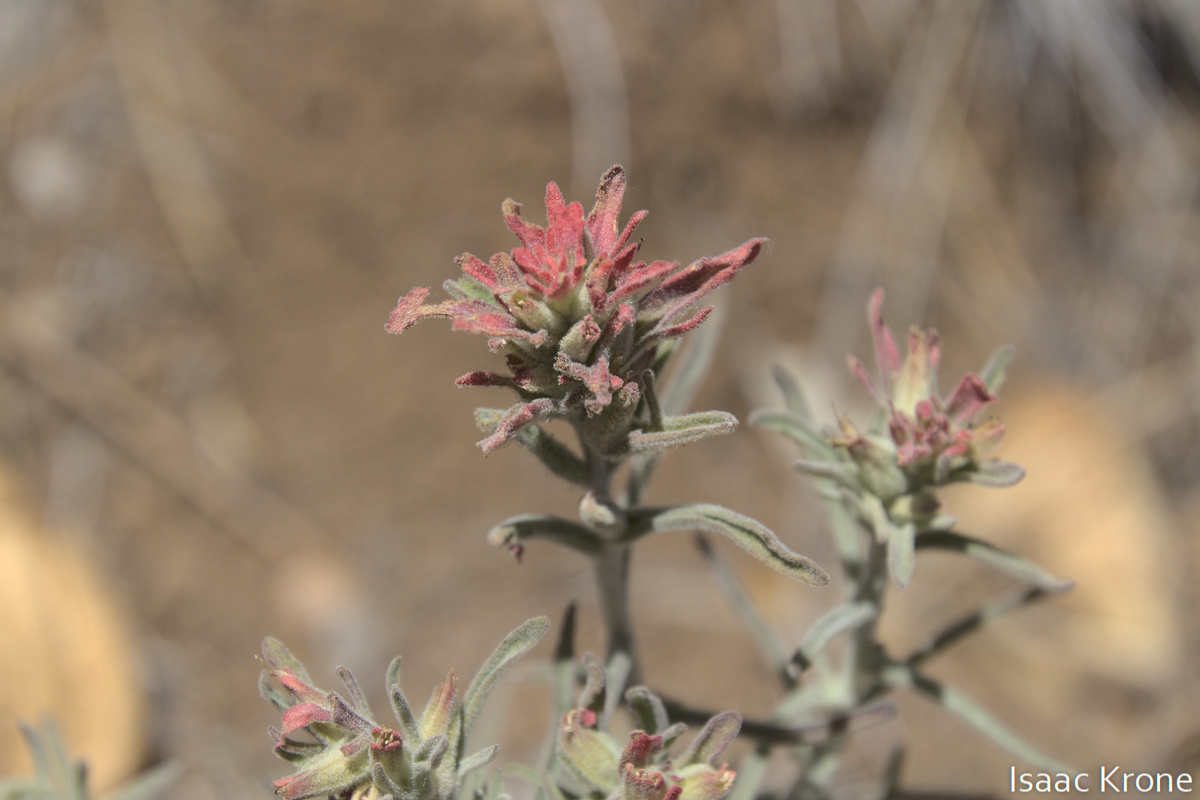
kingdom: Plantae
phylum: Tracheophyta
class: Magnoliopsida
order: Lamiales
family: Orobanchaceae
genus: Castilleja
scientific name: Castilleja foliolosa
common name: Woolly indian paintbrush
